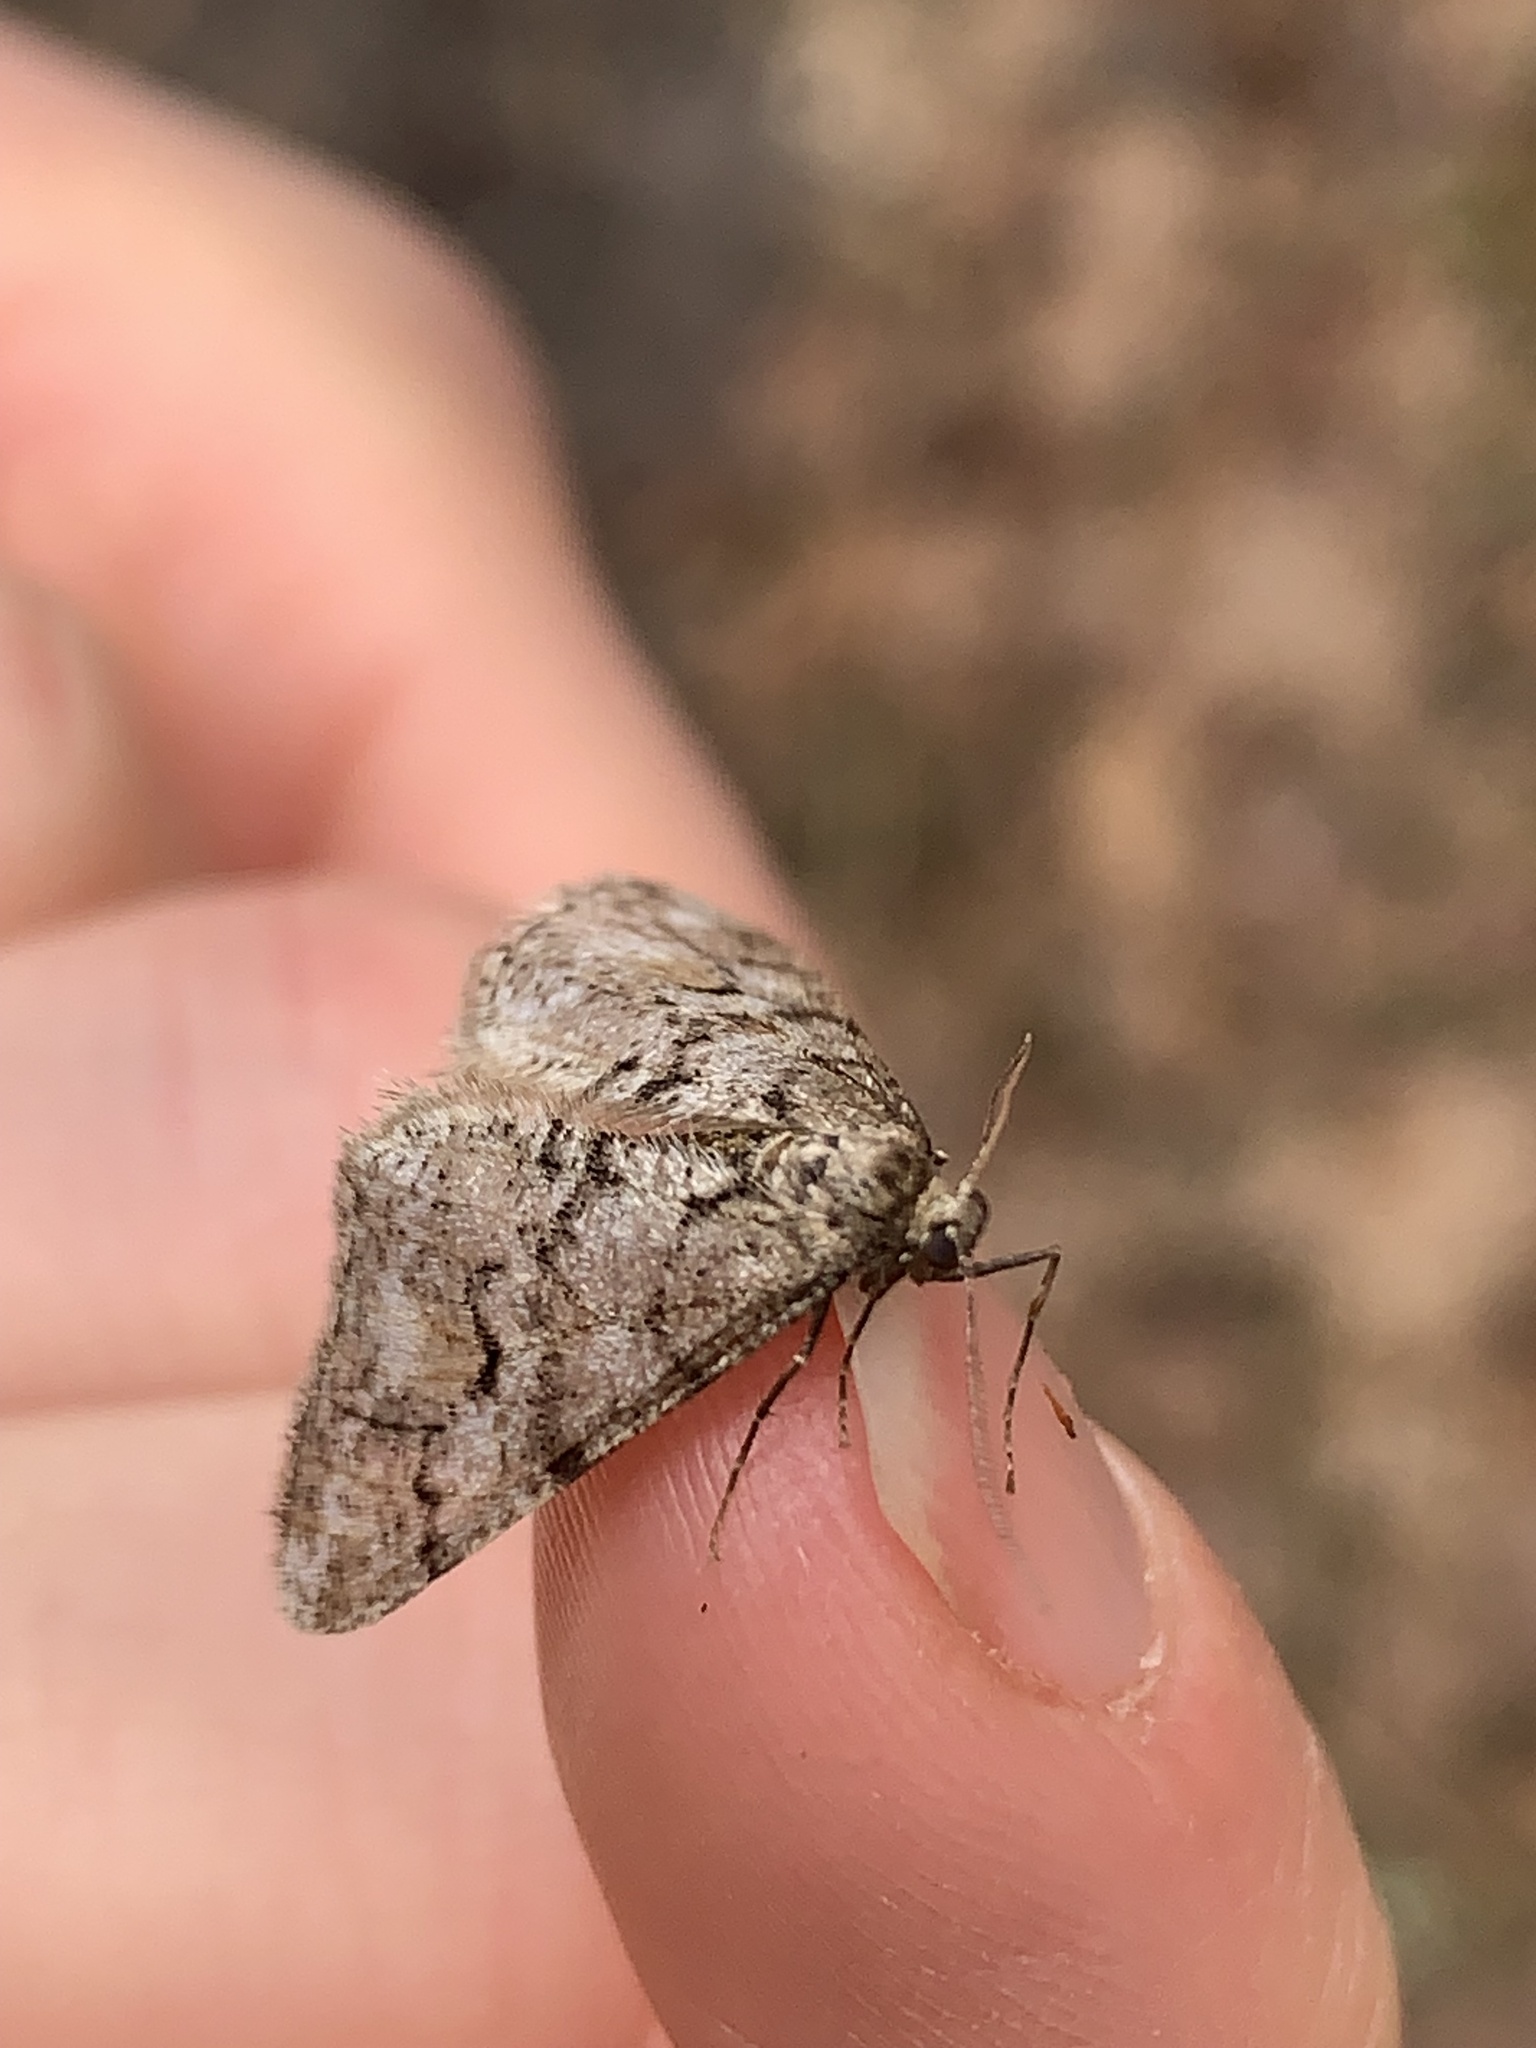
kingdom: Animalia
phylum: Arthropoda
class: Insecta
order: Lepidoptera
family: Geometridae
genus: Agriopis
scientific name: Agriopis leucophaearia
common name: Spring usher
